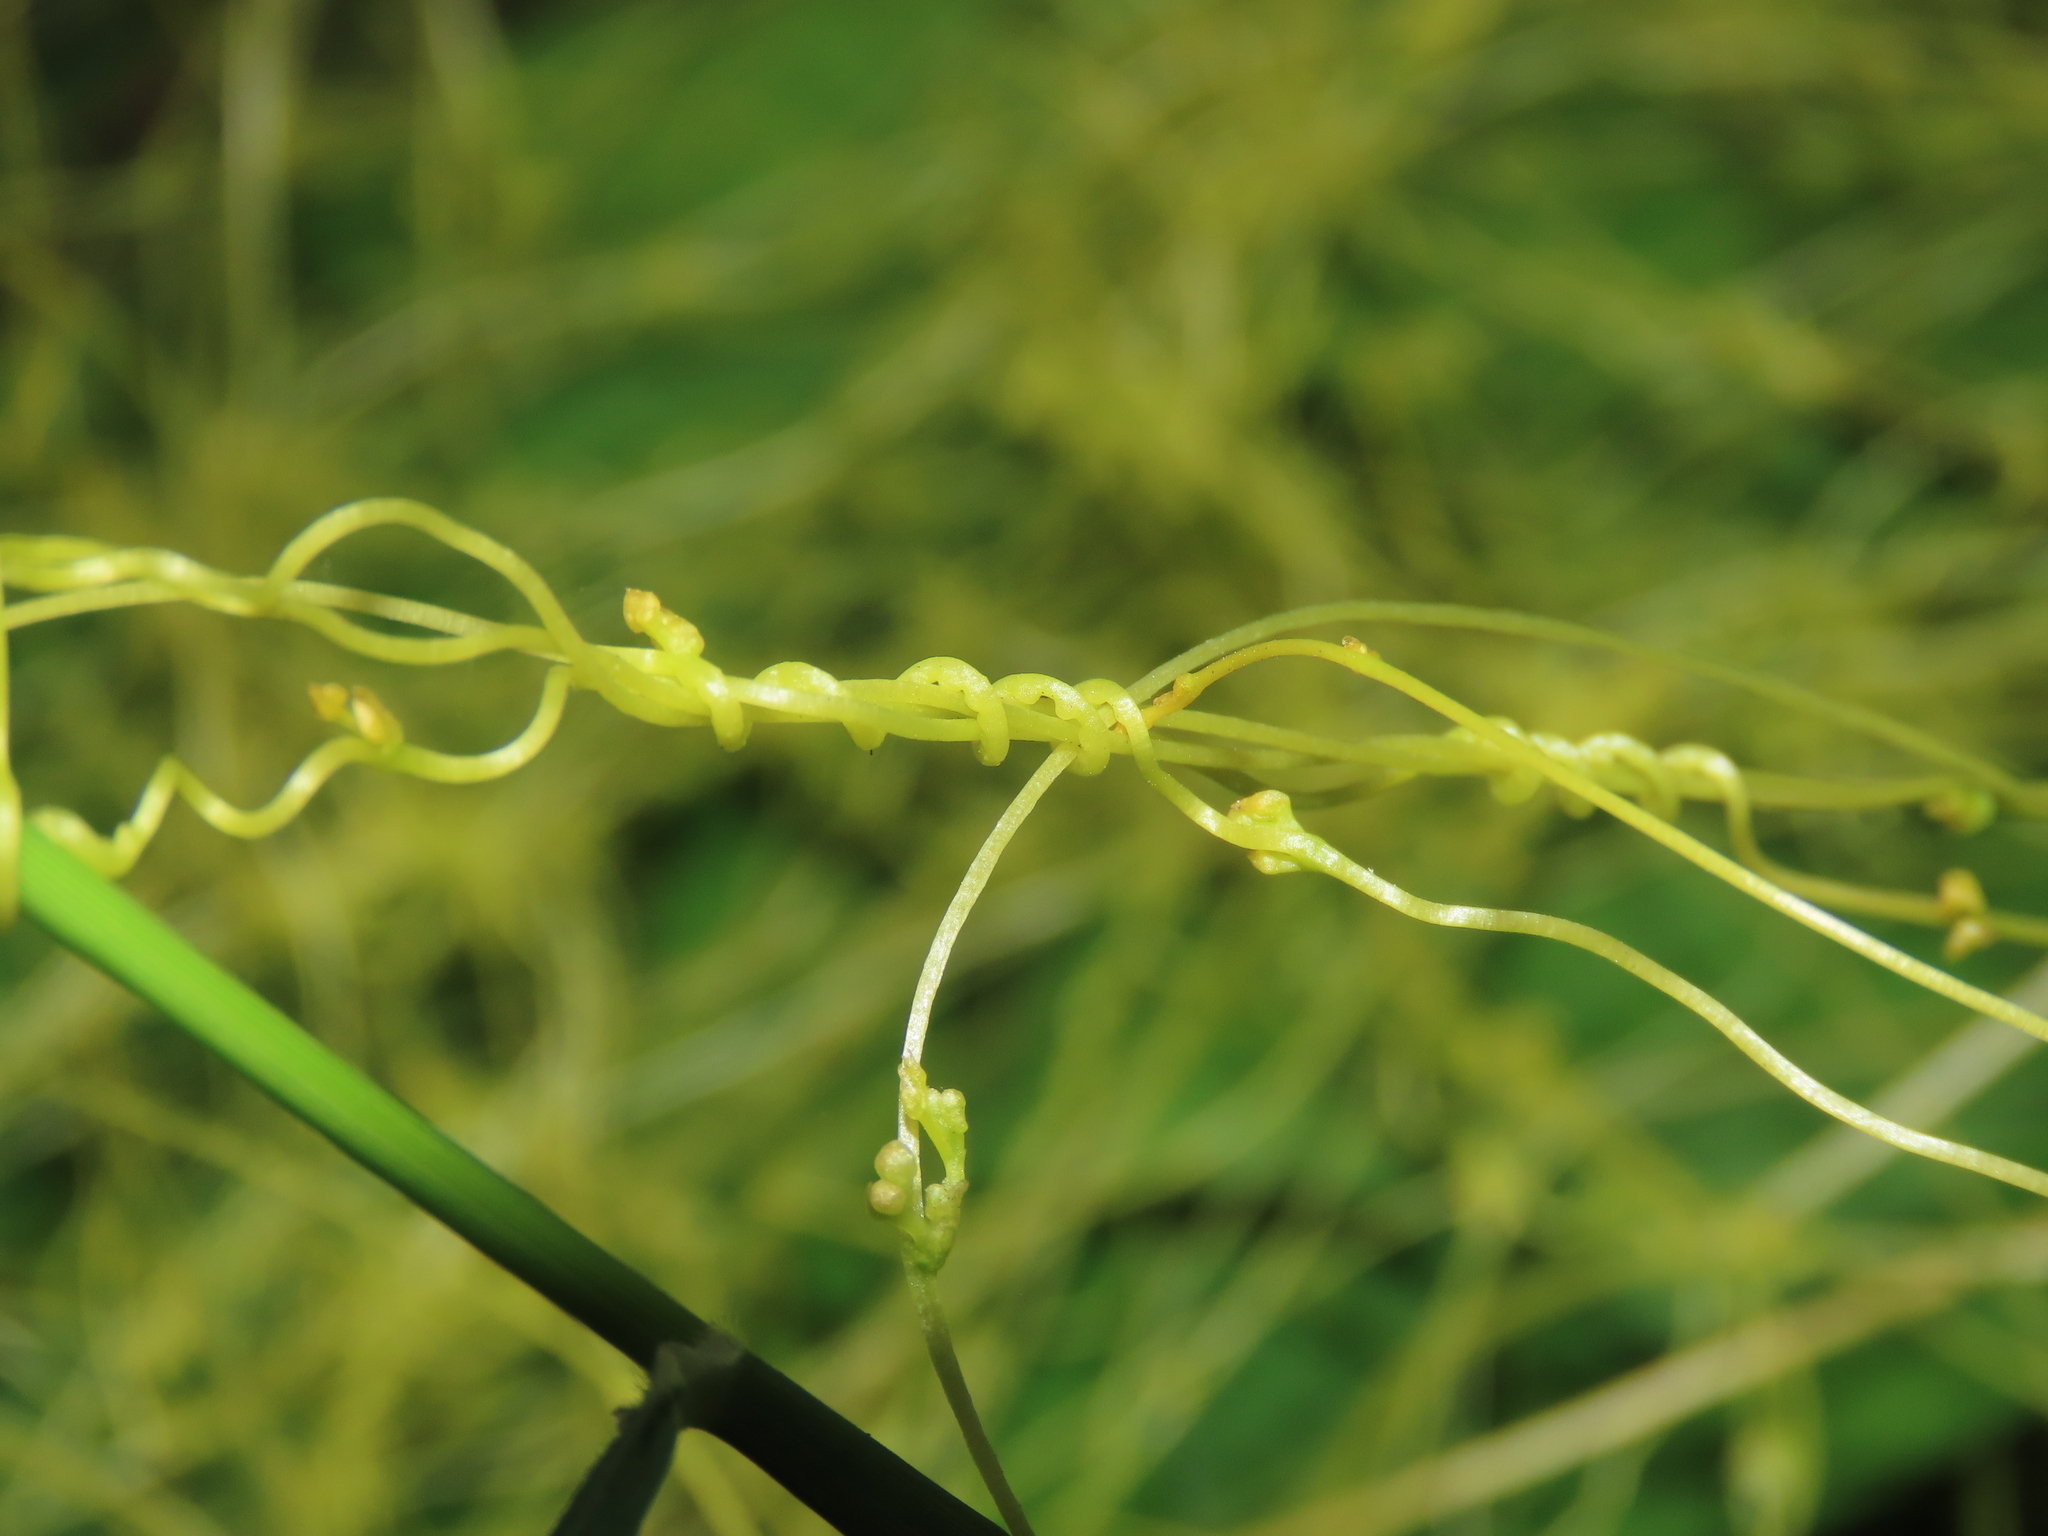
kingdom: Plantae
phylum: Tracheophyta
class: Magnoliopsida
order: Solanales
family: Convolvulaceae
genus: Cuscuta
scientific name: Cuscuta campestris
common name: Yellow dodder
